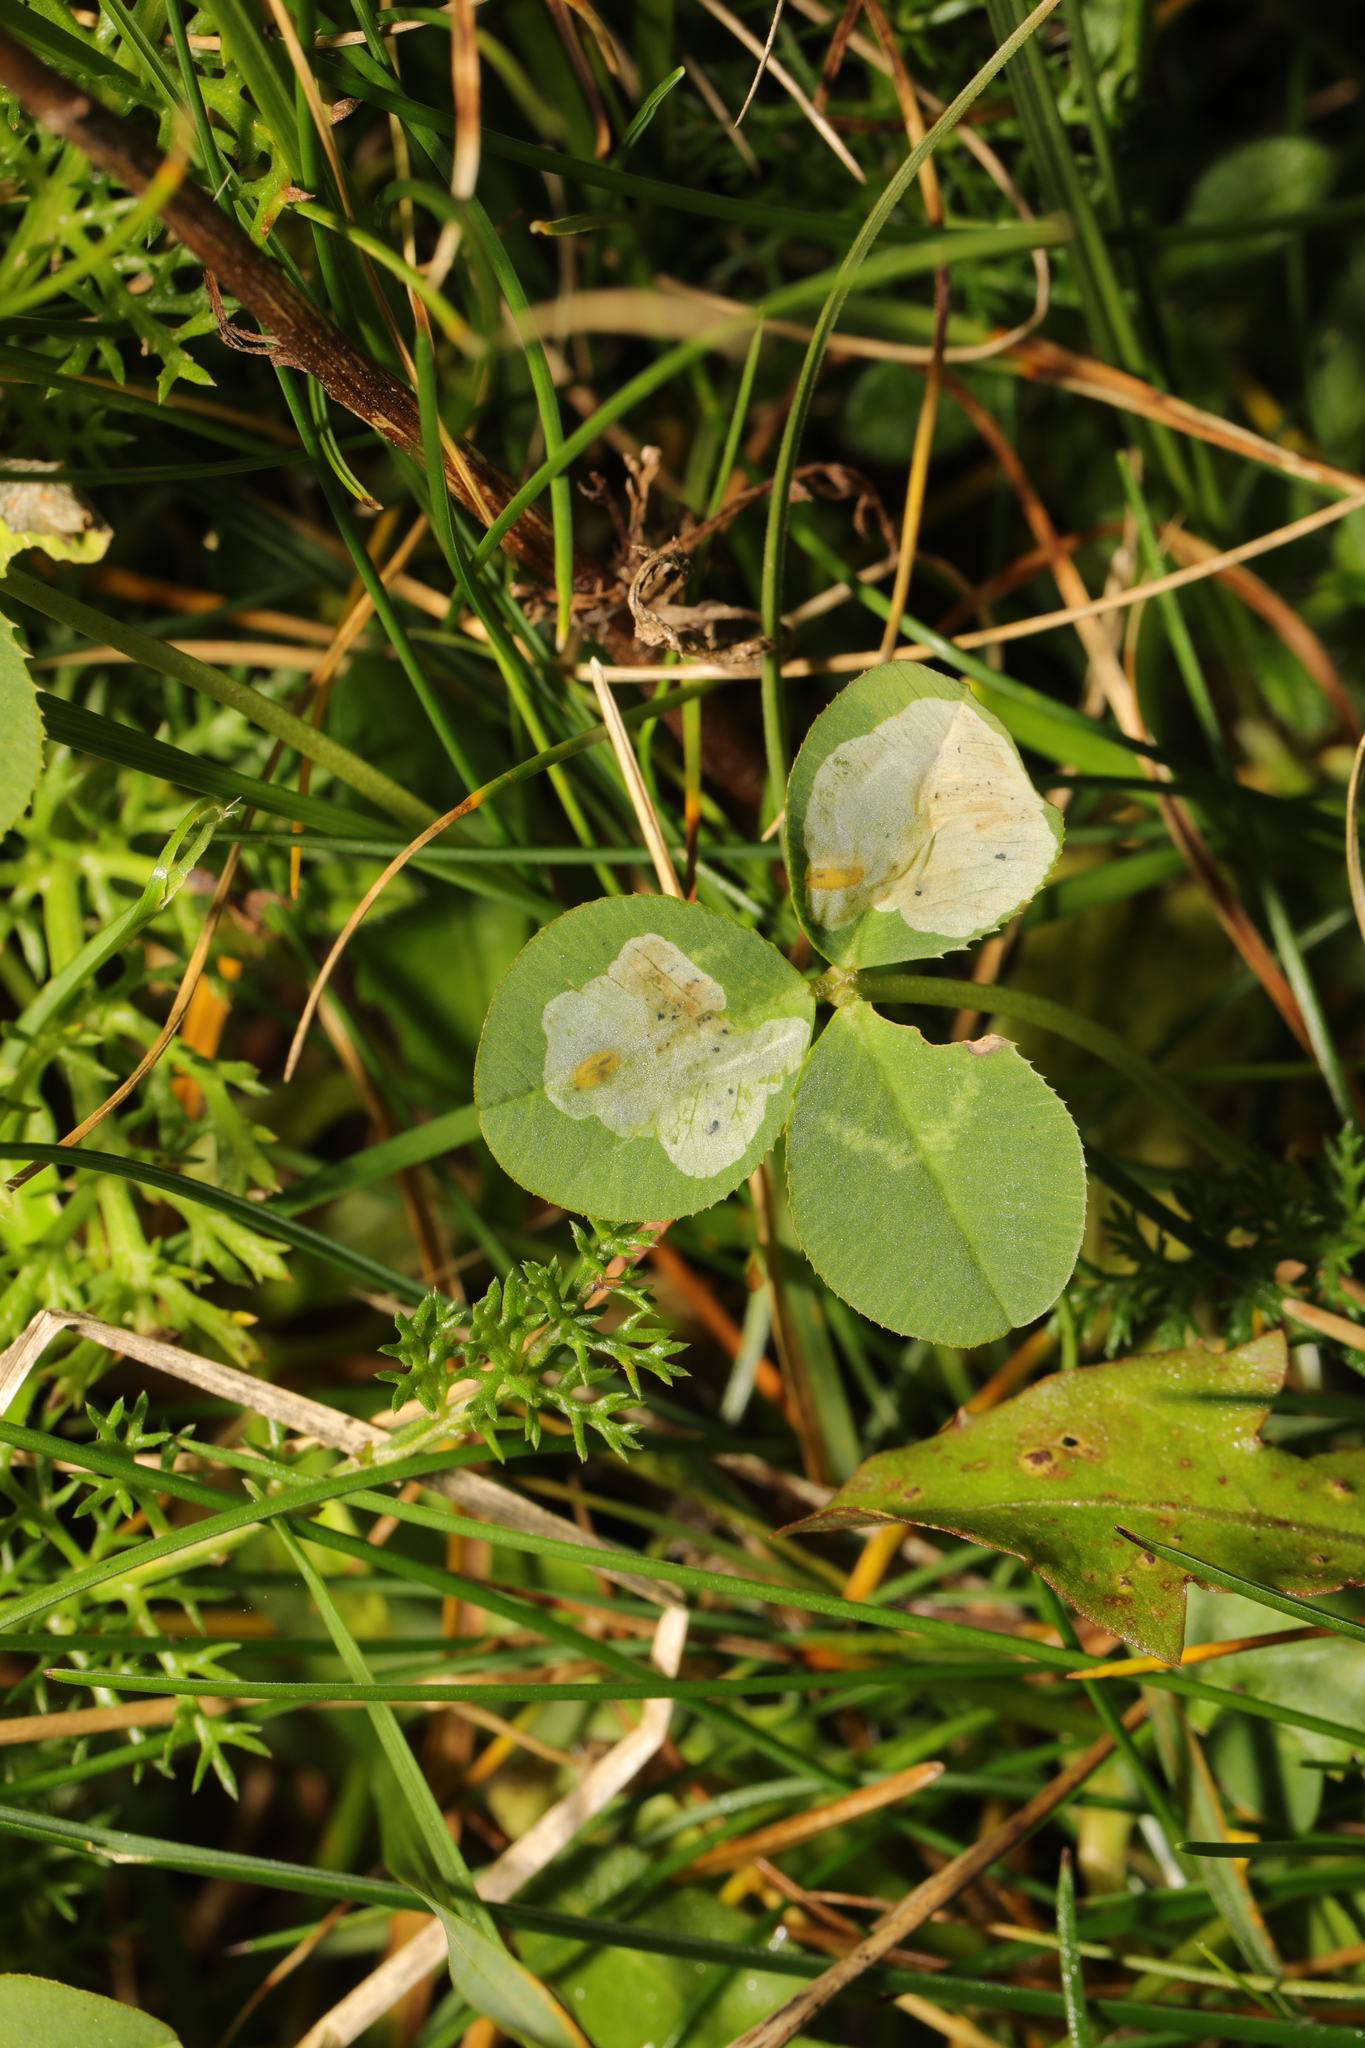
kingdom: Animalia
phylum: Arthropoda
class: Insecta
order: Diptera
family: Agromyzidae
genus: Agromyza
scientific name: Agromyza nana
